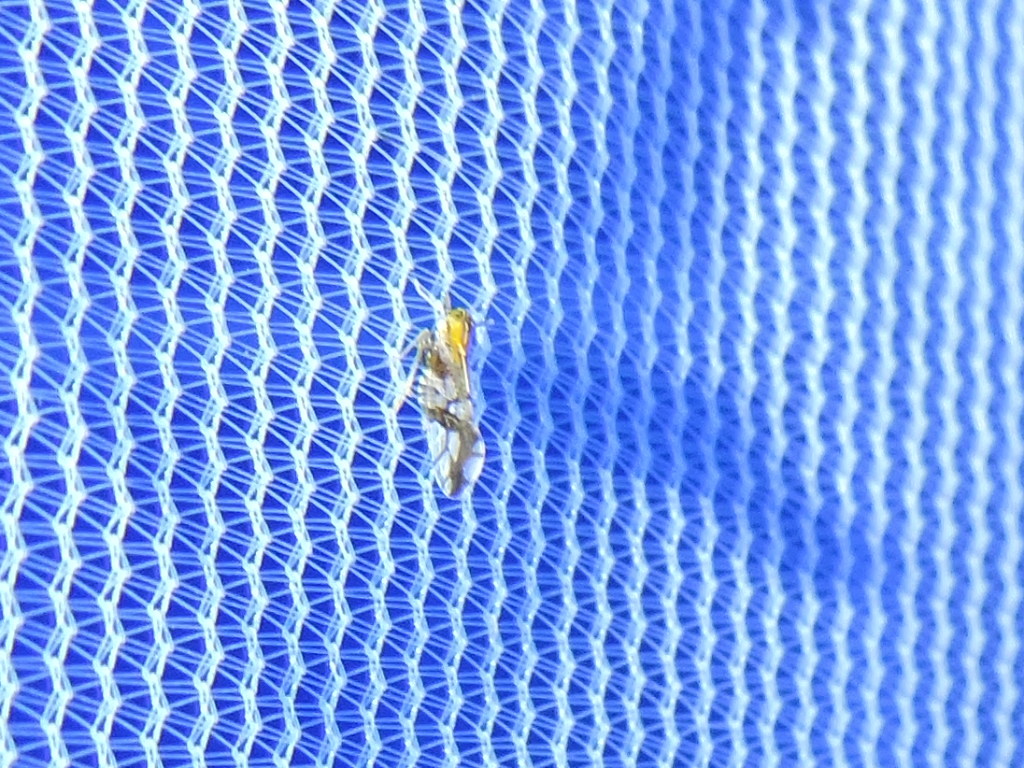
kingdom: Animalia
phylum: Arthropoda
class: Insecta
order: Hemiptera
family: Delphacidae
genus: Liburniella
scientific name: Liburniella ornata
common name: Ornate planthopper
